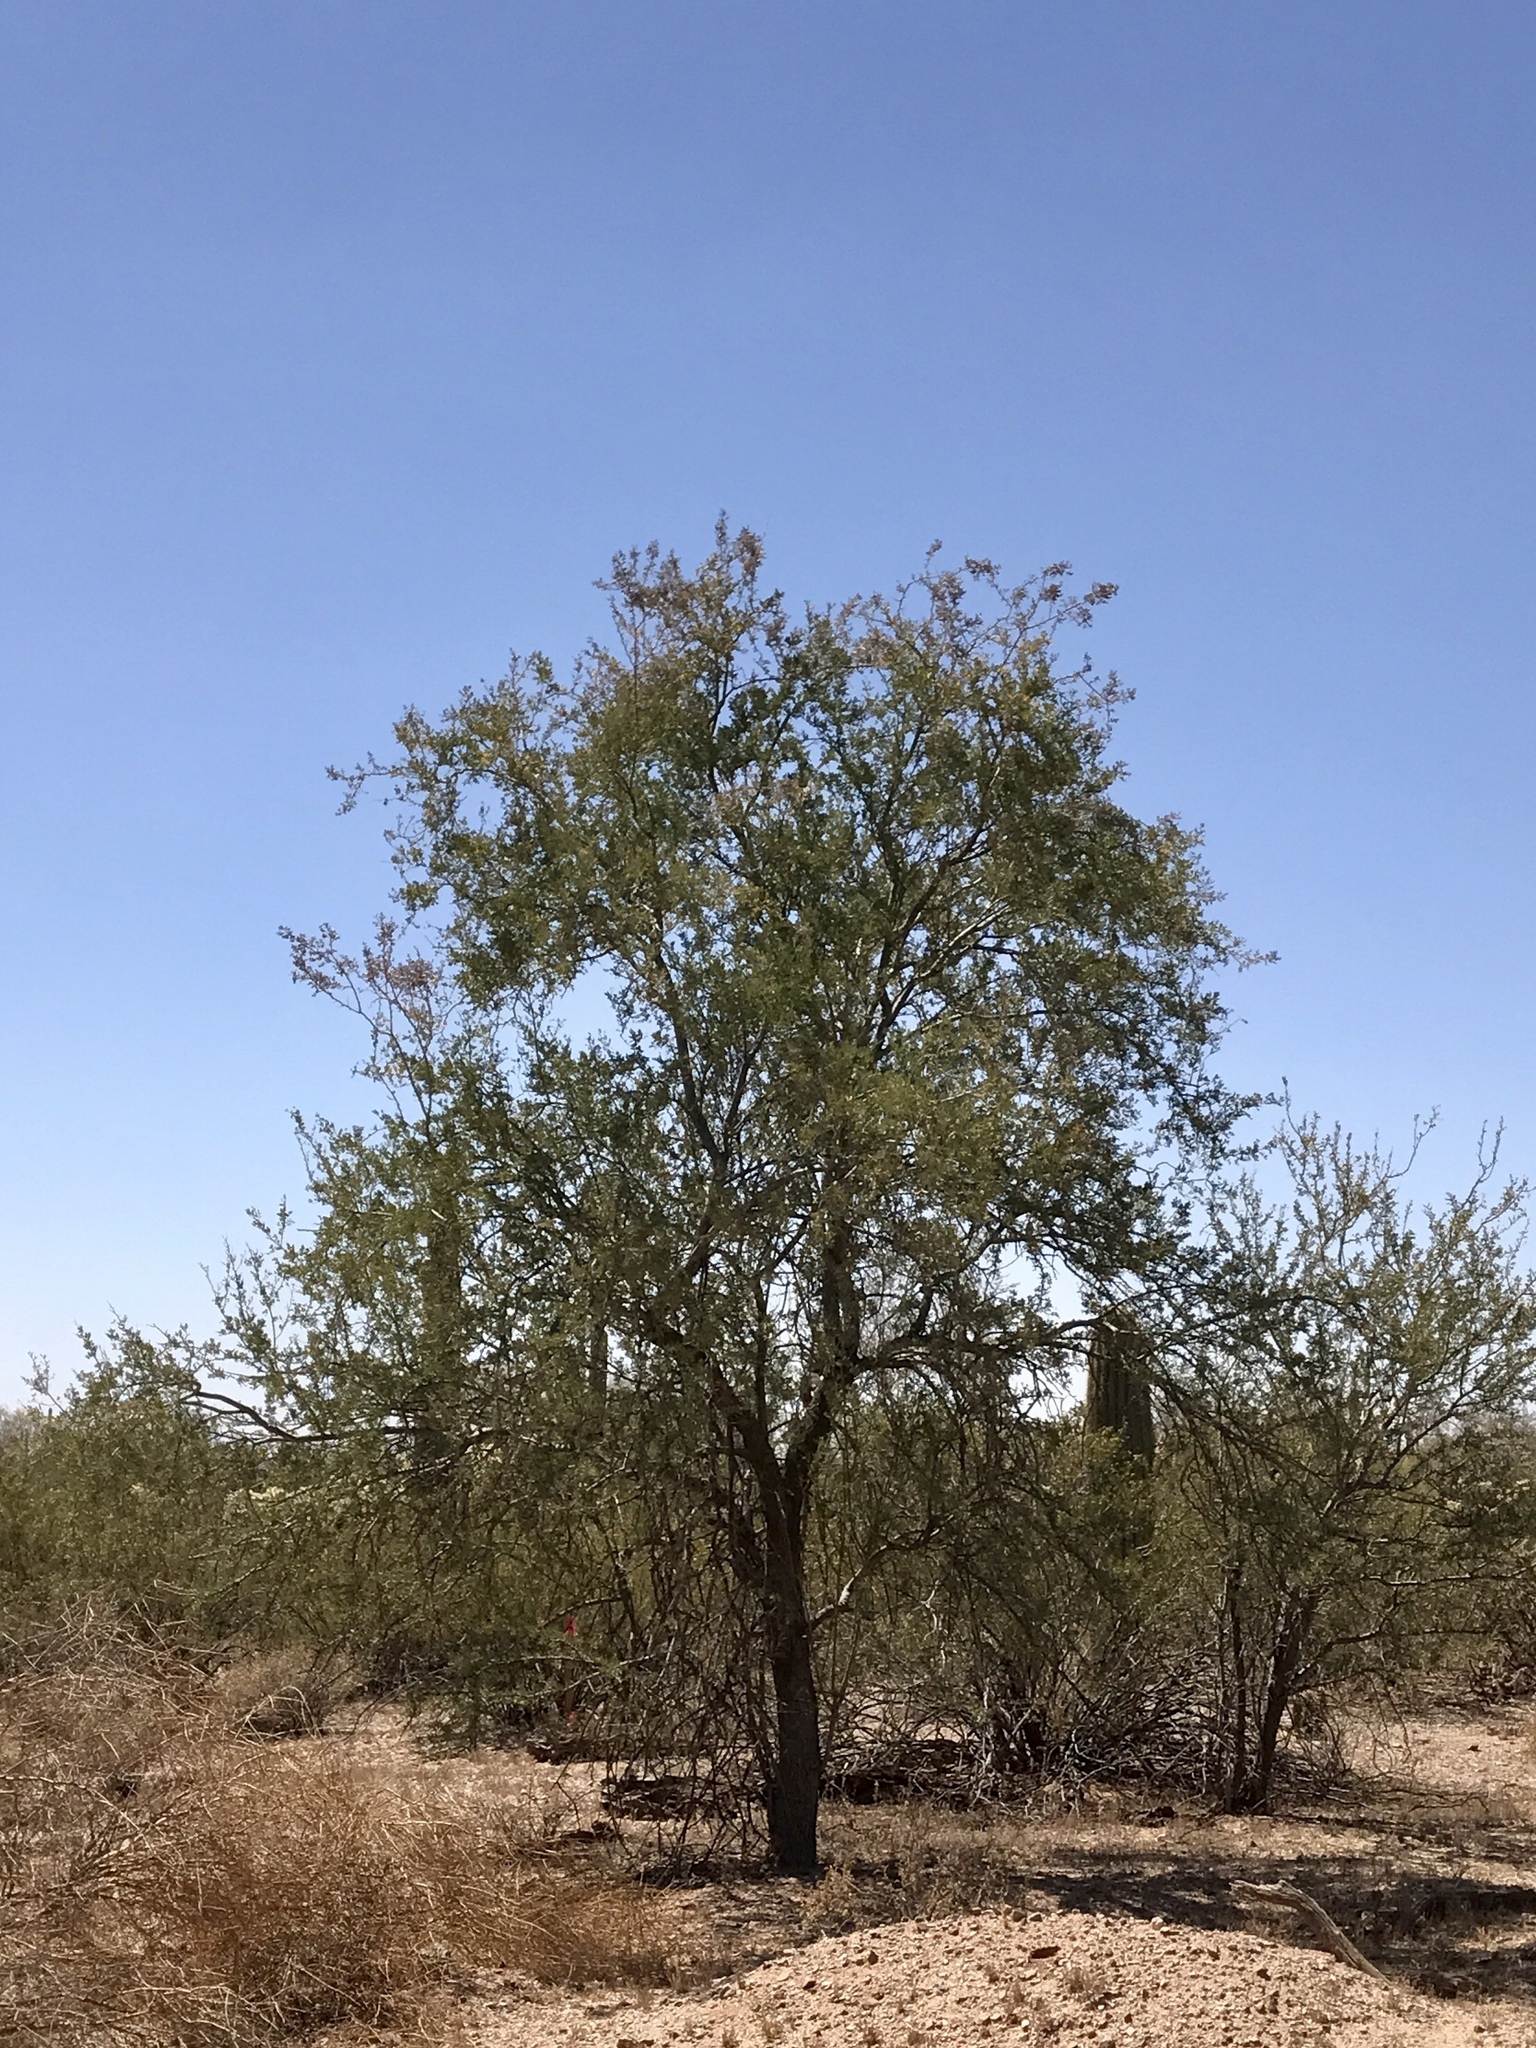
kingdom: Plantae
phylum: Tracheophyta
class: Magnoliopsida
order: Fabales
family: Fabaceae
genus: Olneya
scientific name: Olneya tesota
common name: Desert ironwood
